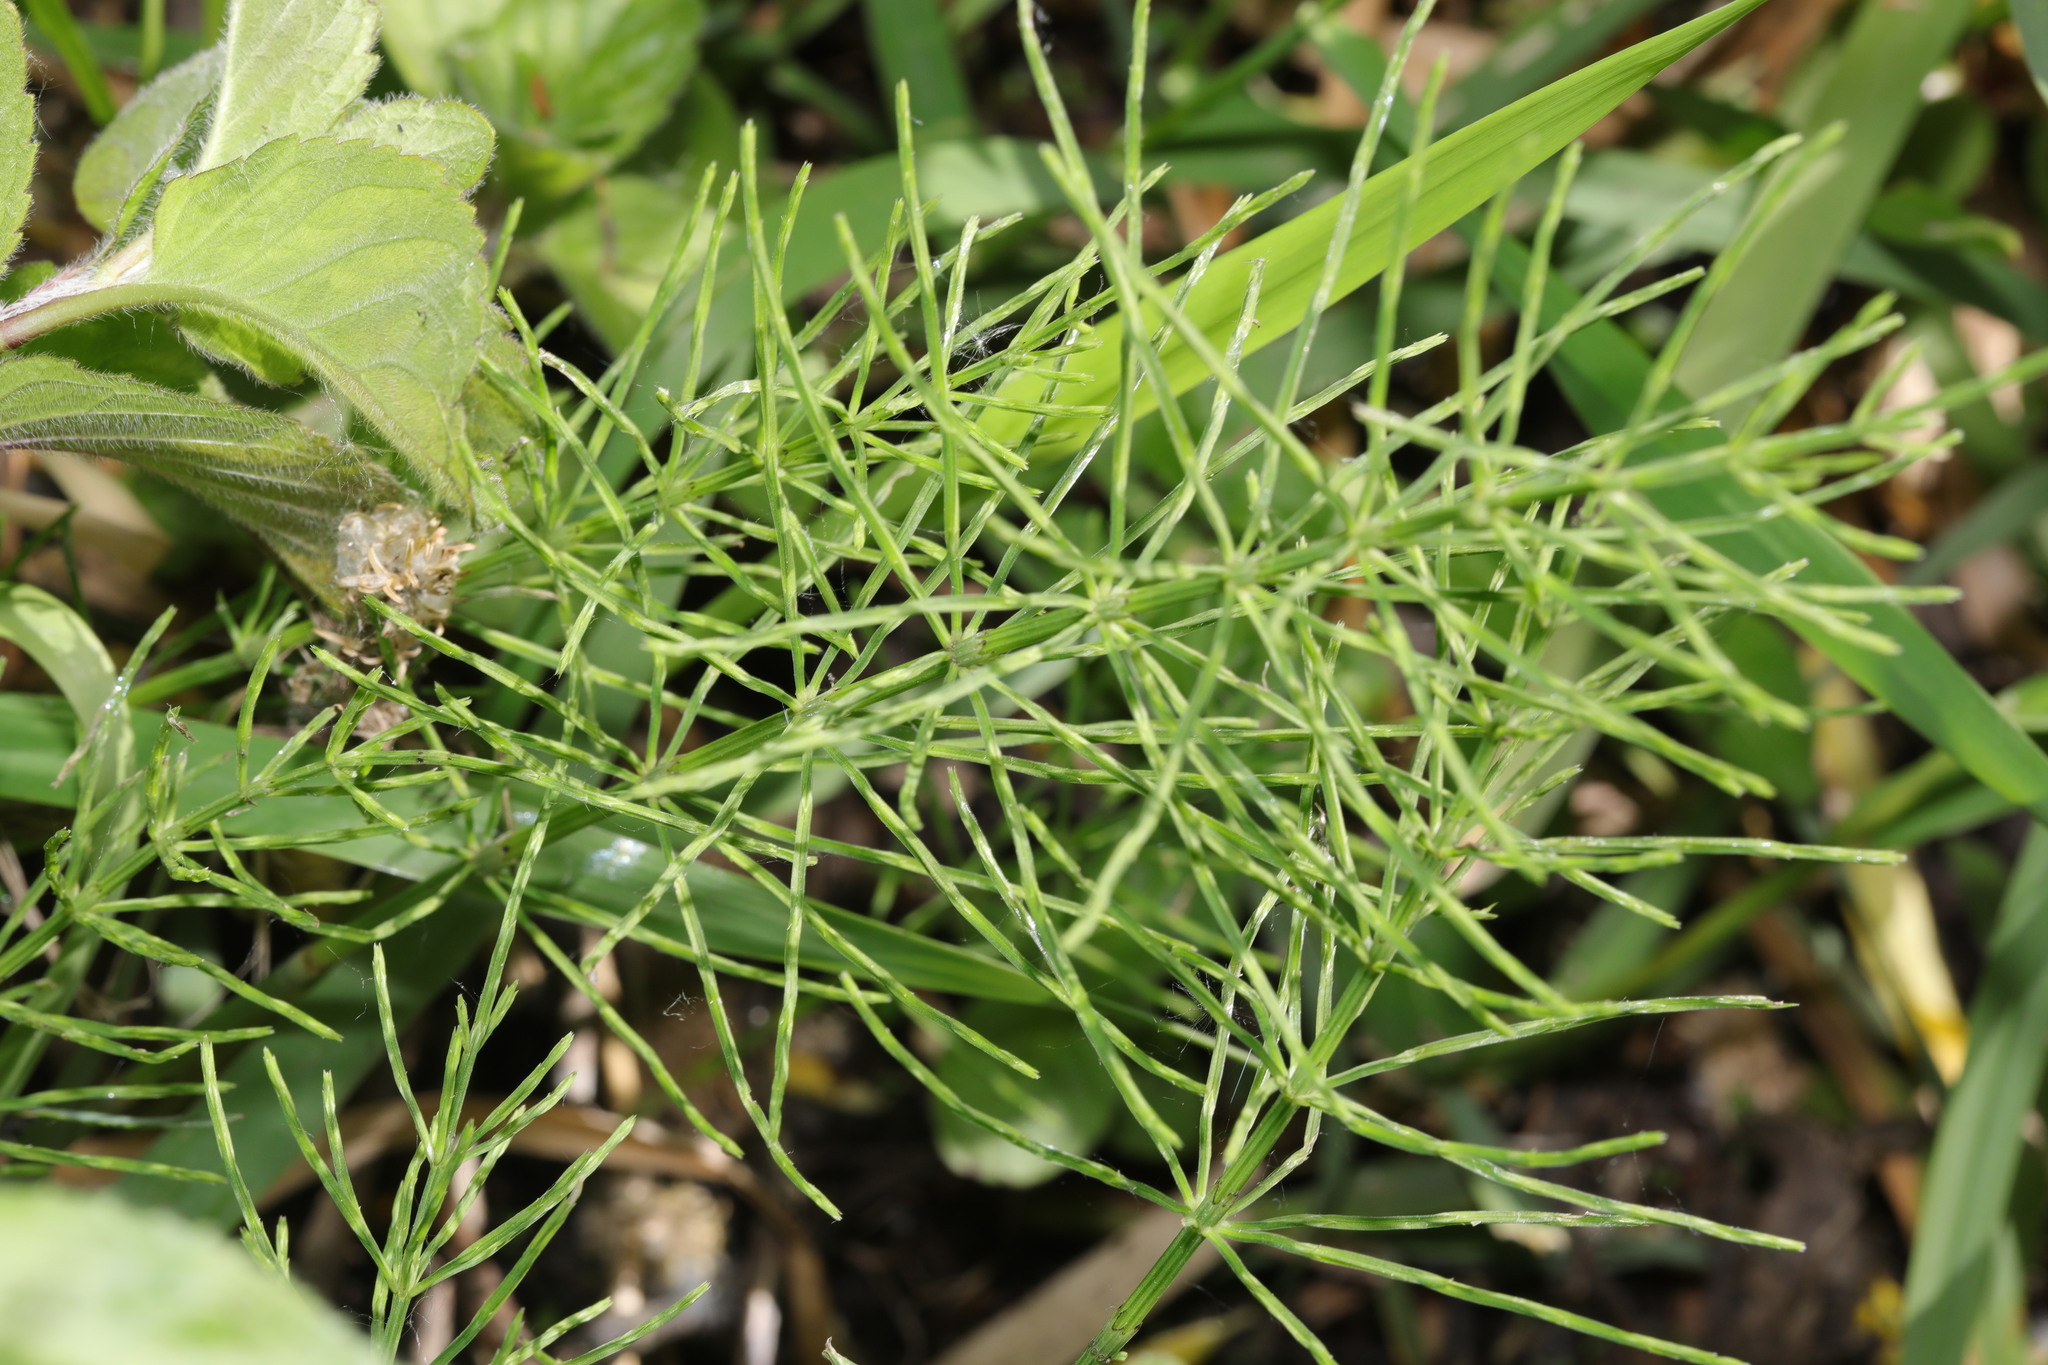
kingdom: Plantae
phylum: Tracheophyta
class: Polypodiopsida
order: Equisetales
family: Equisetaceae
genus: Equisetum
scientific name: Equisetum arvense
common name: Field horsetail
